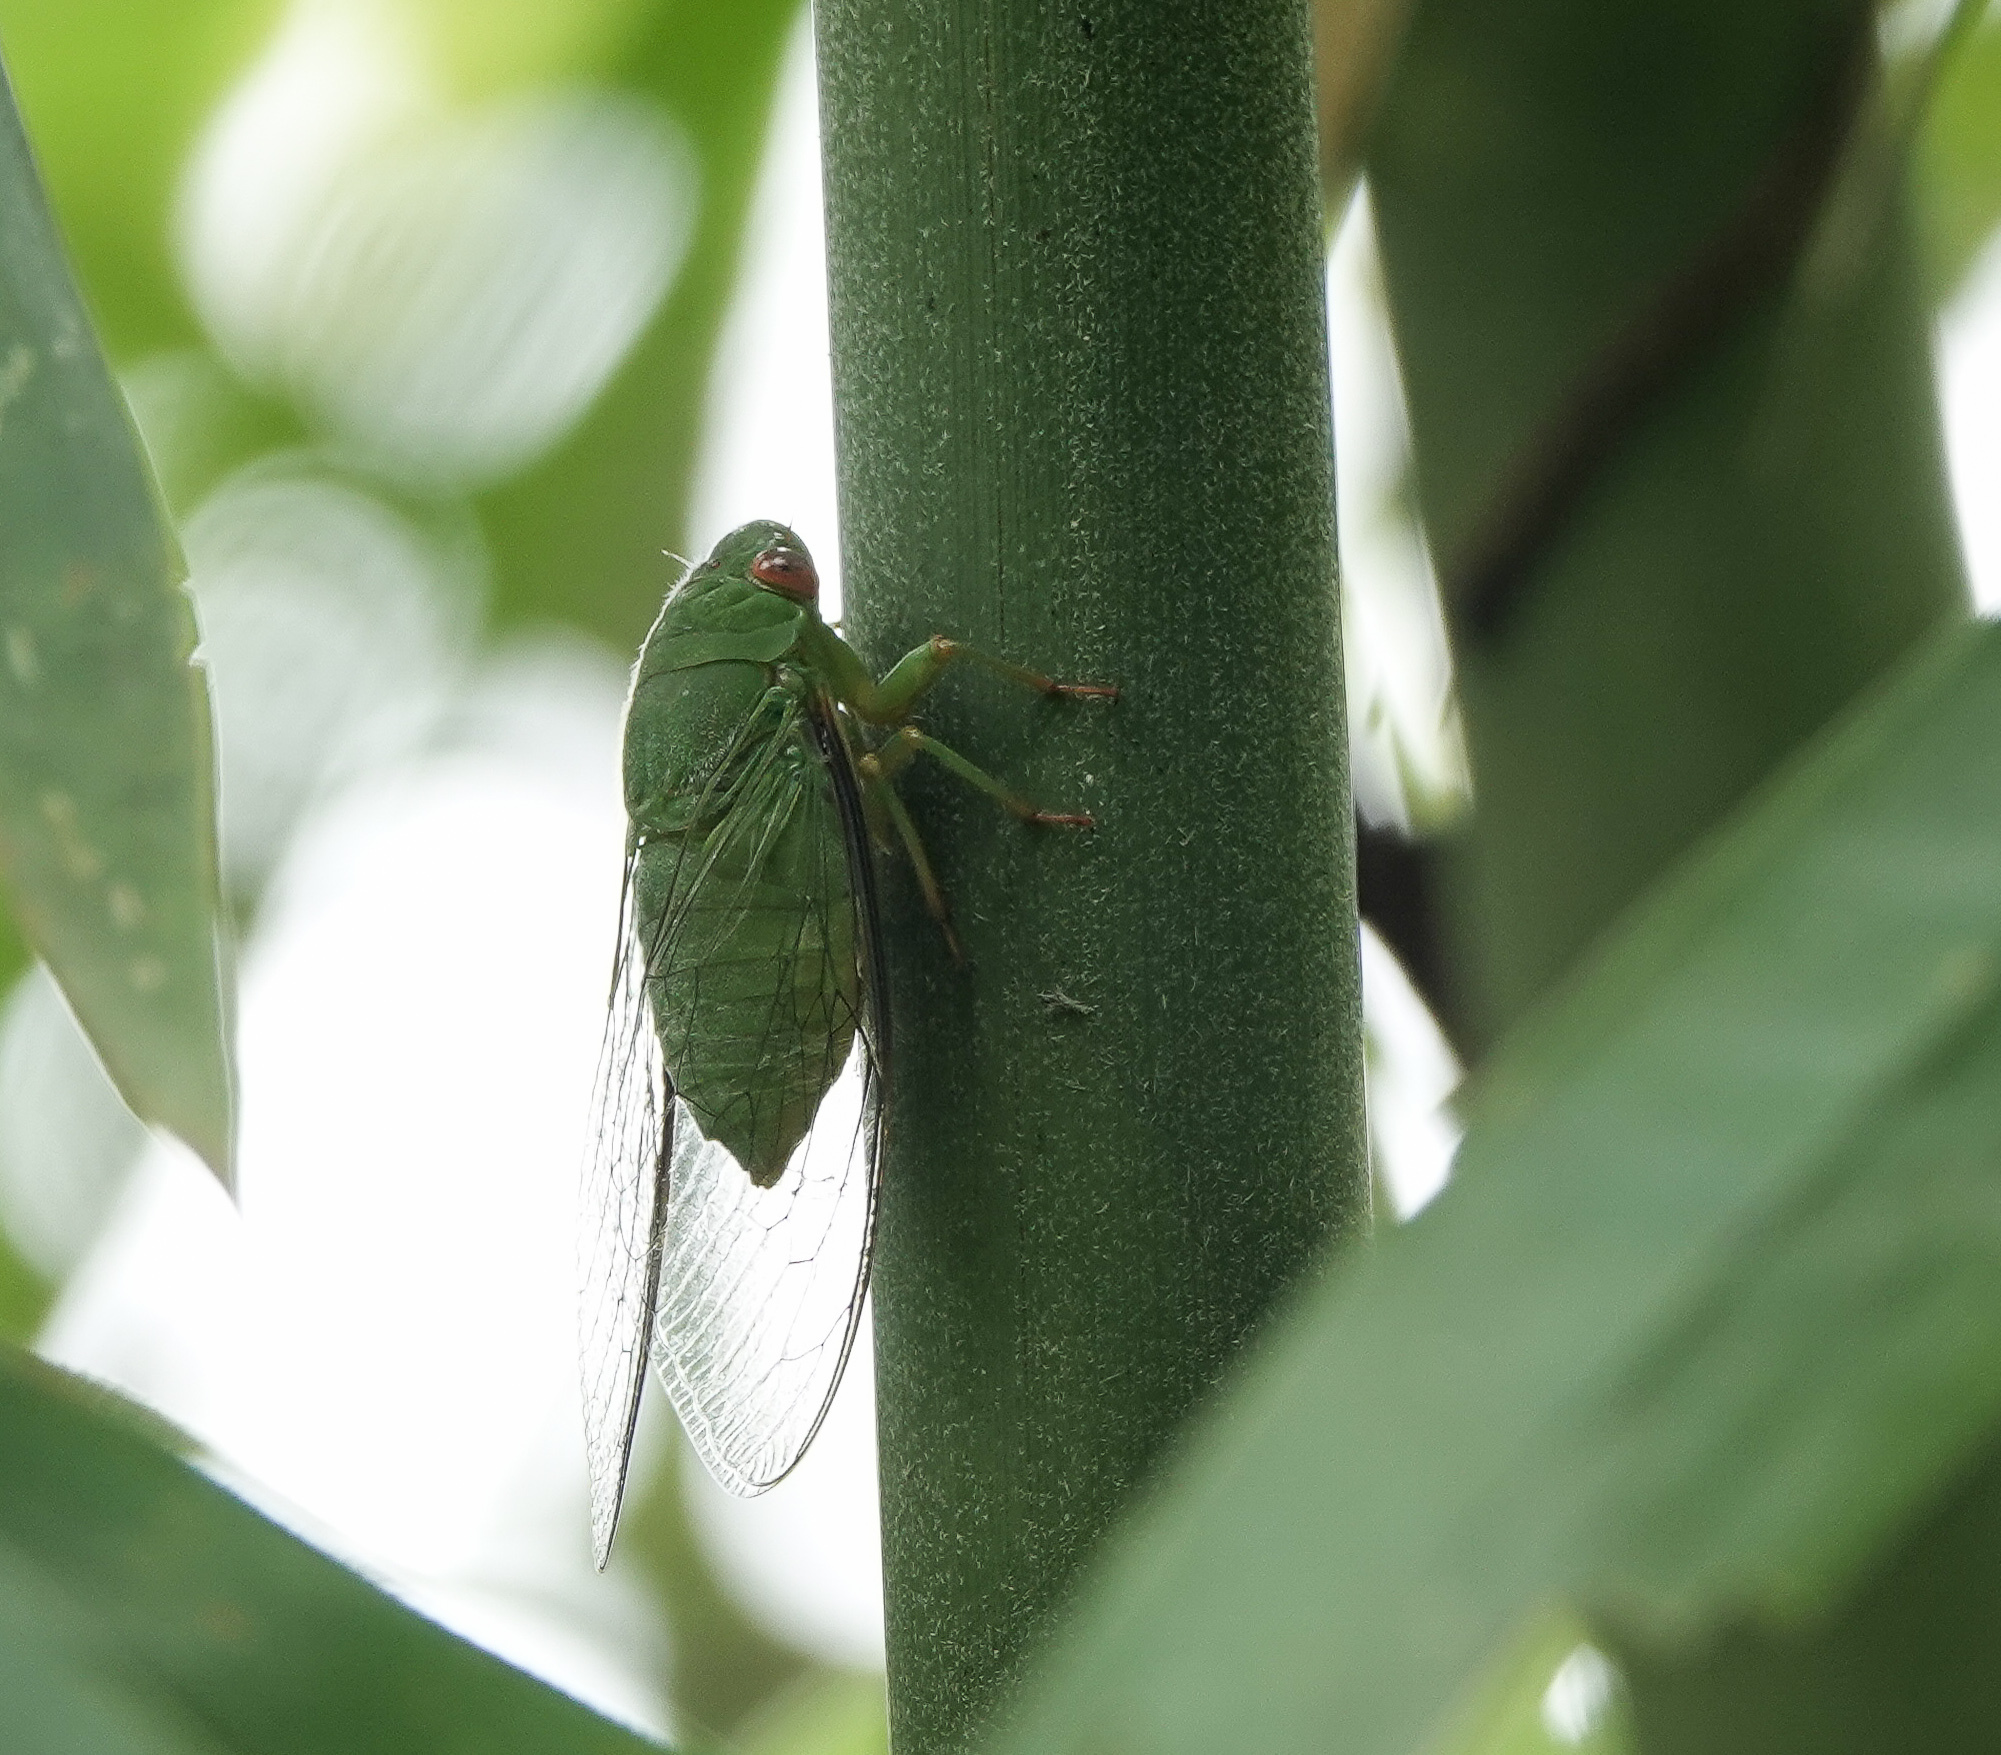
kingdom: Animalia
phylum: Arthropoda
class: Insecta
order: Hemiptera
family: Cicadidae
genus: Dundubia
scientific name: Dundubia annandalei
